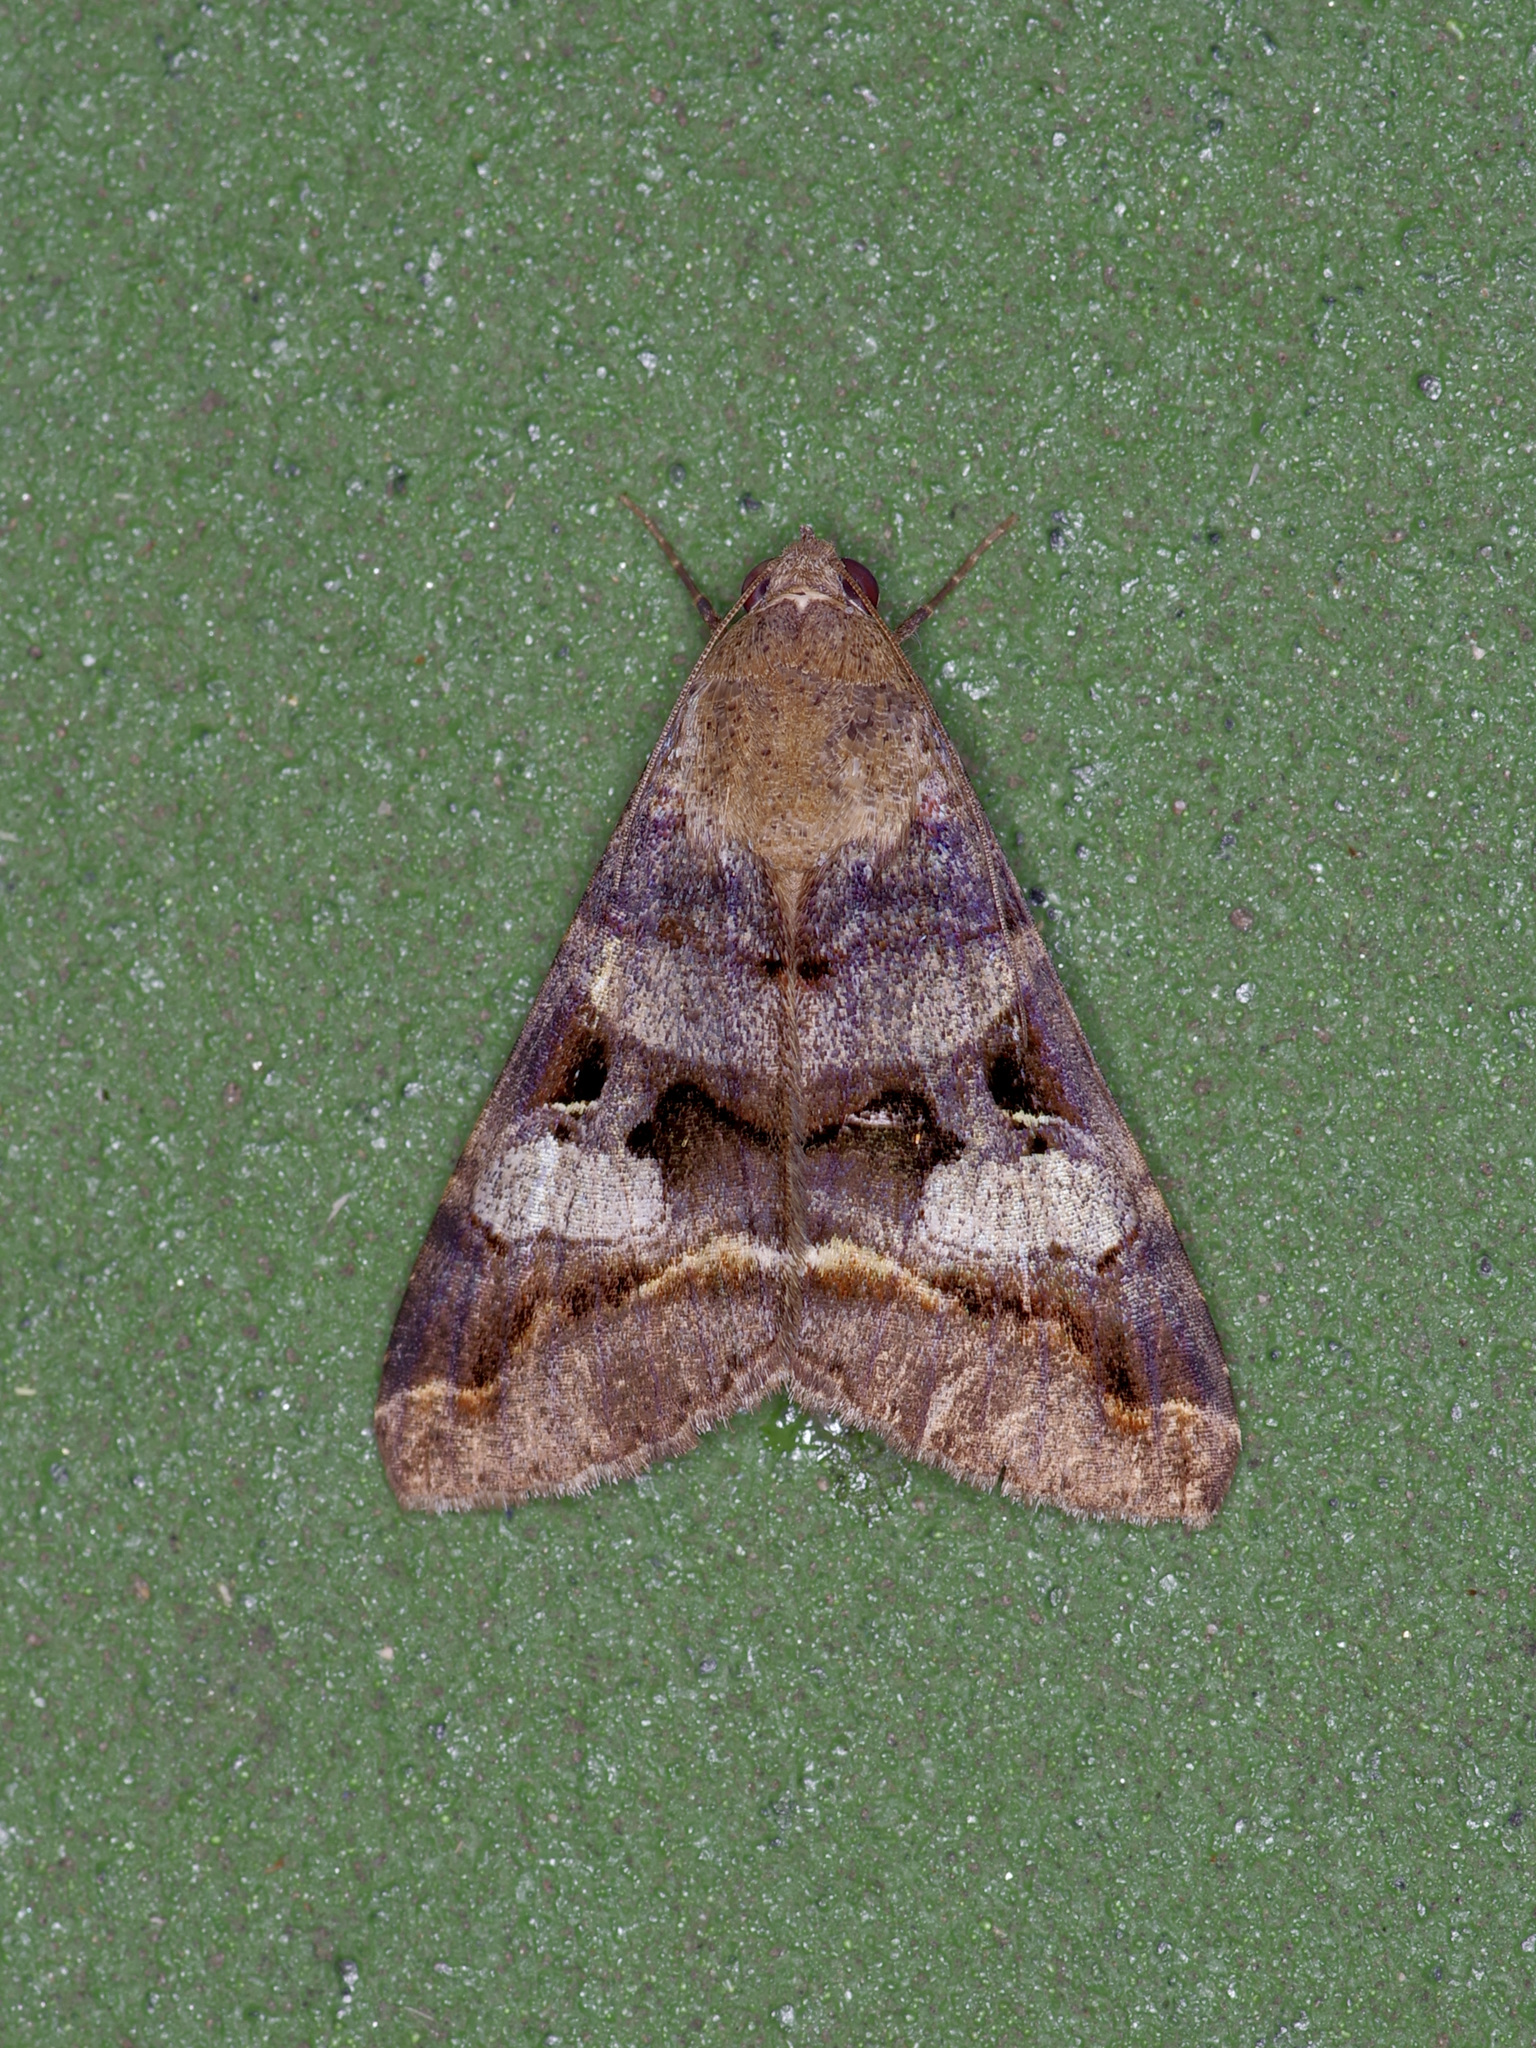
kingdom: Animalia
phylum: Arthropoda
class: Insecta
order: Lepidoptera
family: Erebidae
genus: Melipotis
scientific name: Melipotis perpendicularis
